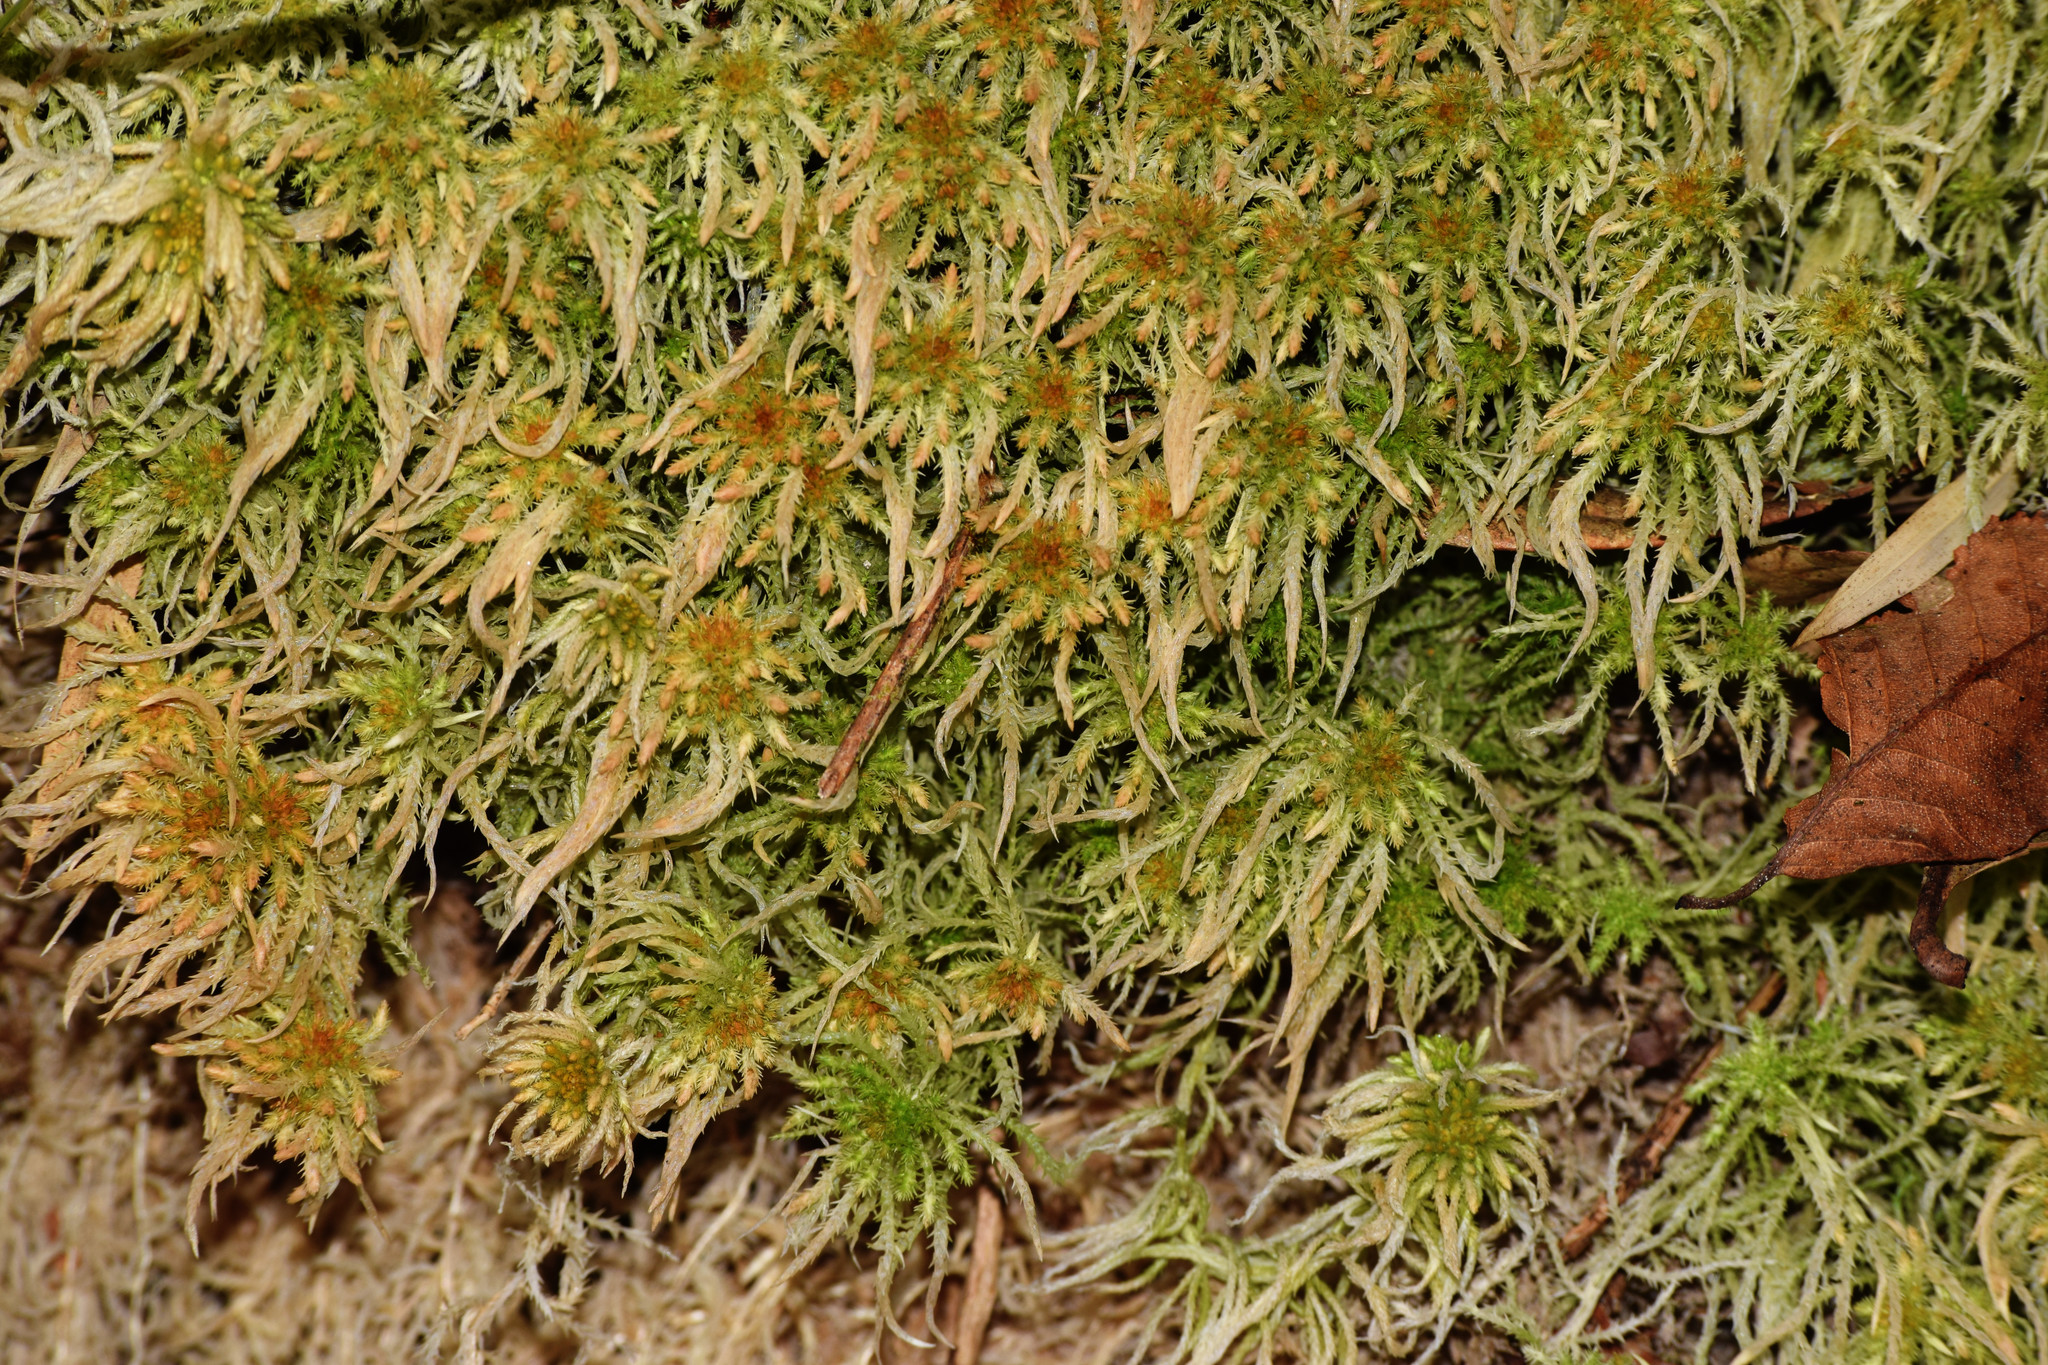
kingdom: Plantae
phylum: Bryophyta
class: Sphagnopsida
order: Sphagnales
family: Sphagnaceae
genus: Sphagnum
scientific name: Sphagnum junghuhnianum
